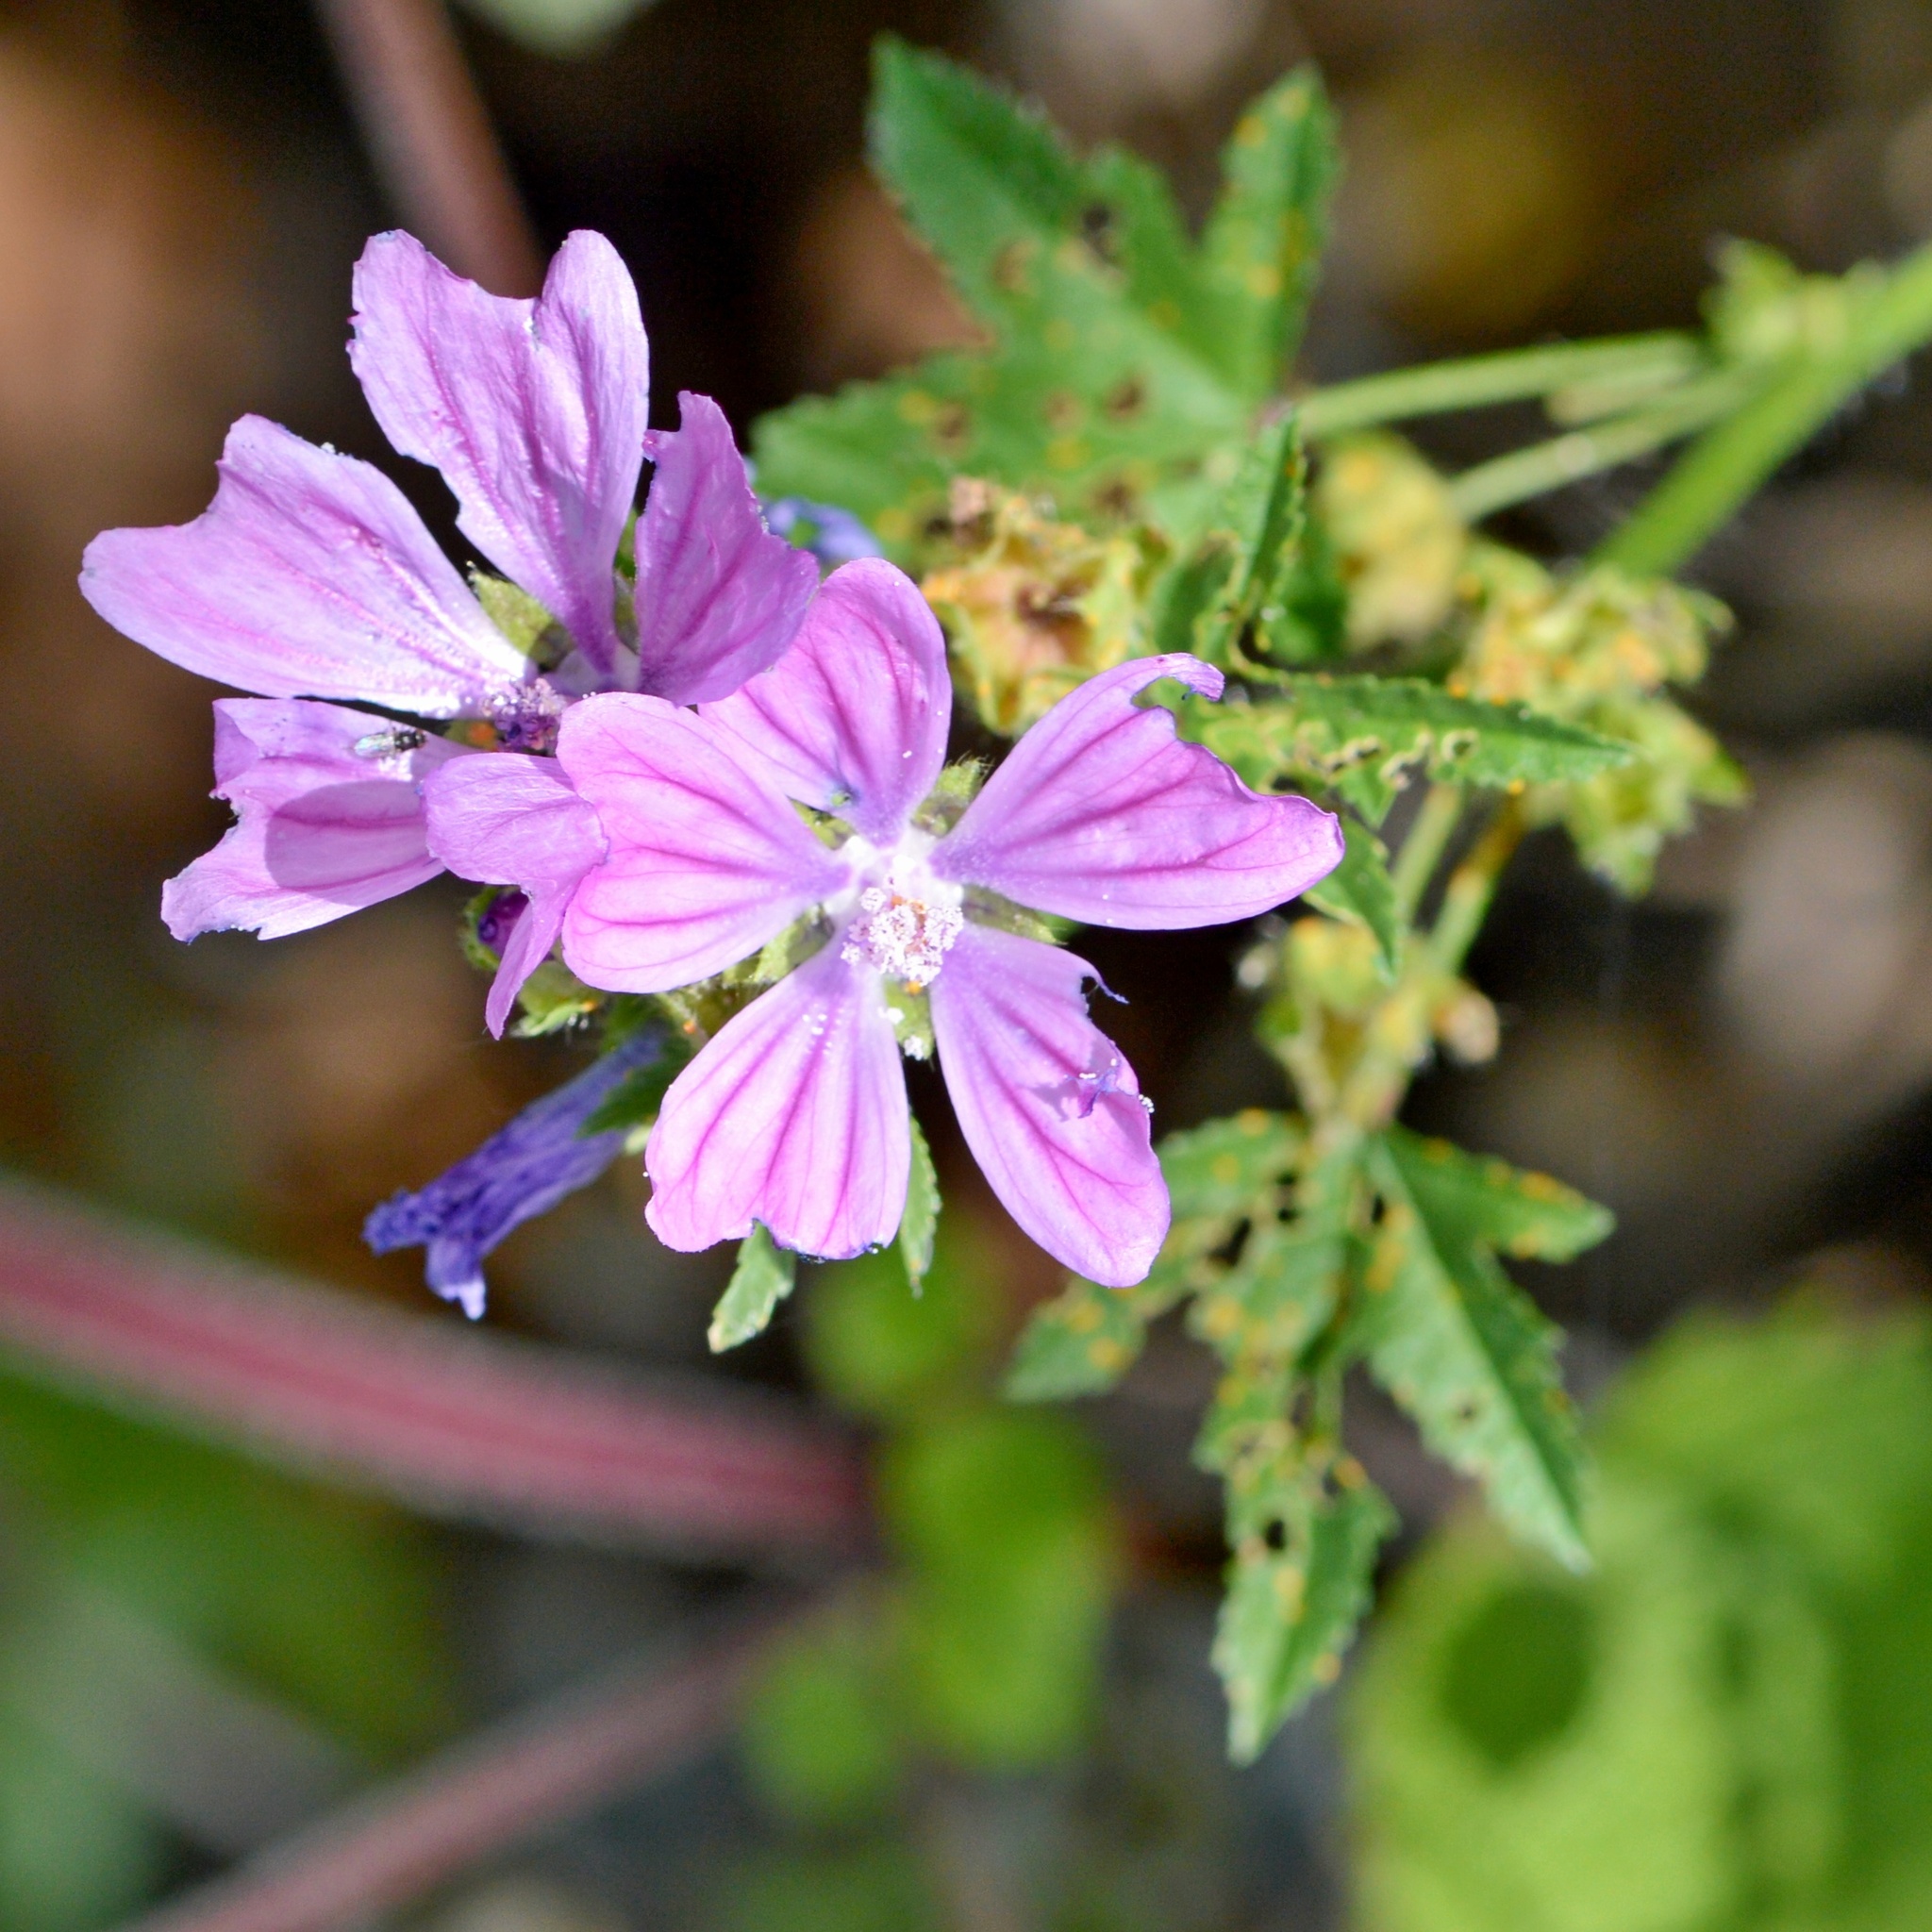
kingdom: Plantae
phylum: Tracheophyta
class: Magnoliopsida
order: Malvales
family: Malvaceae
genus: Malva
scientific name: Malva sylvestris
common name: Common mallow
